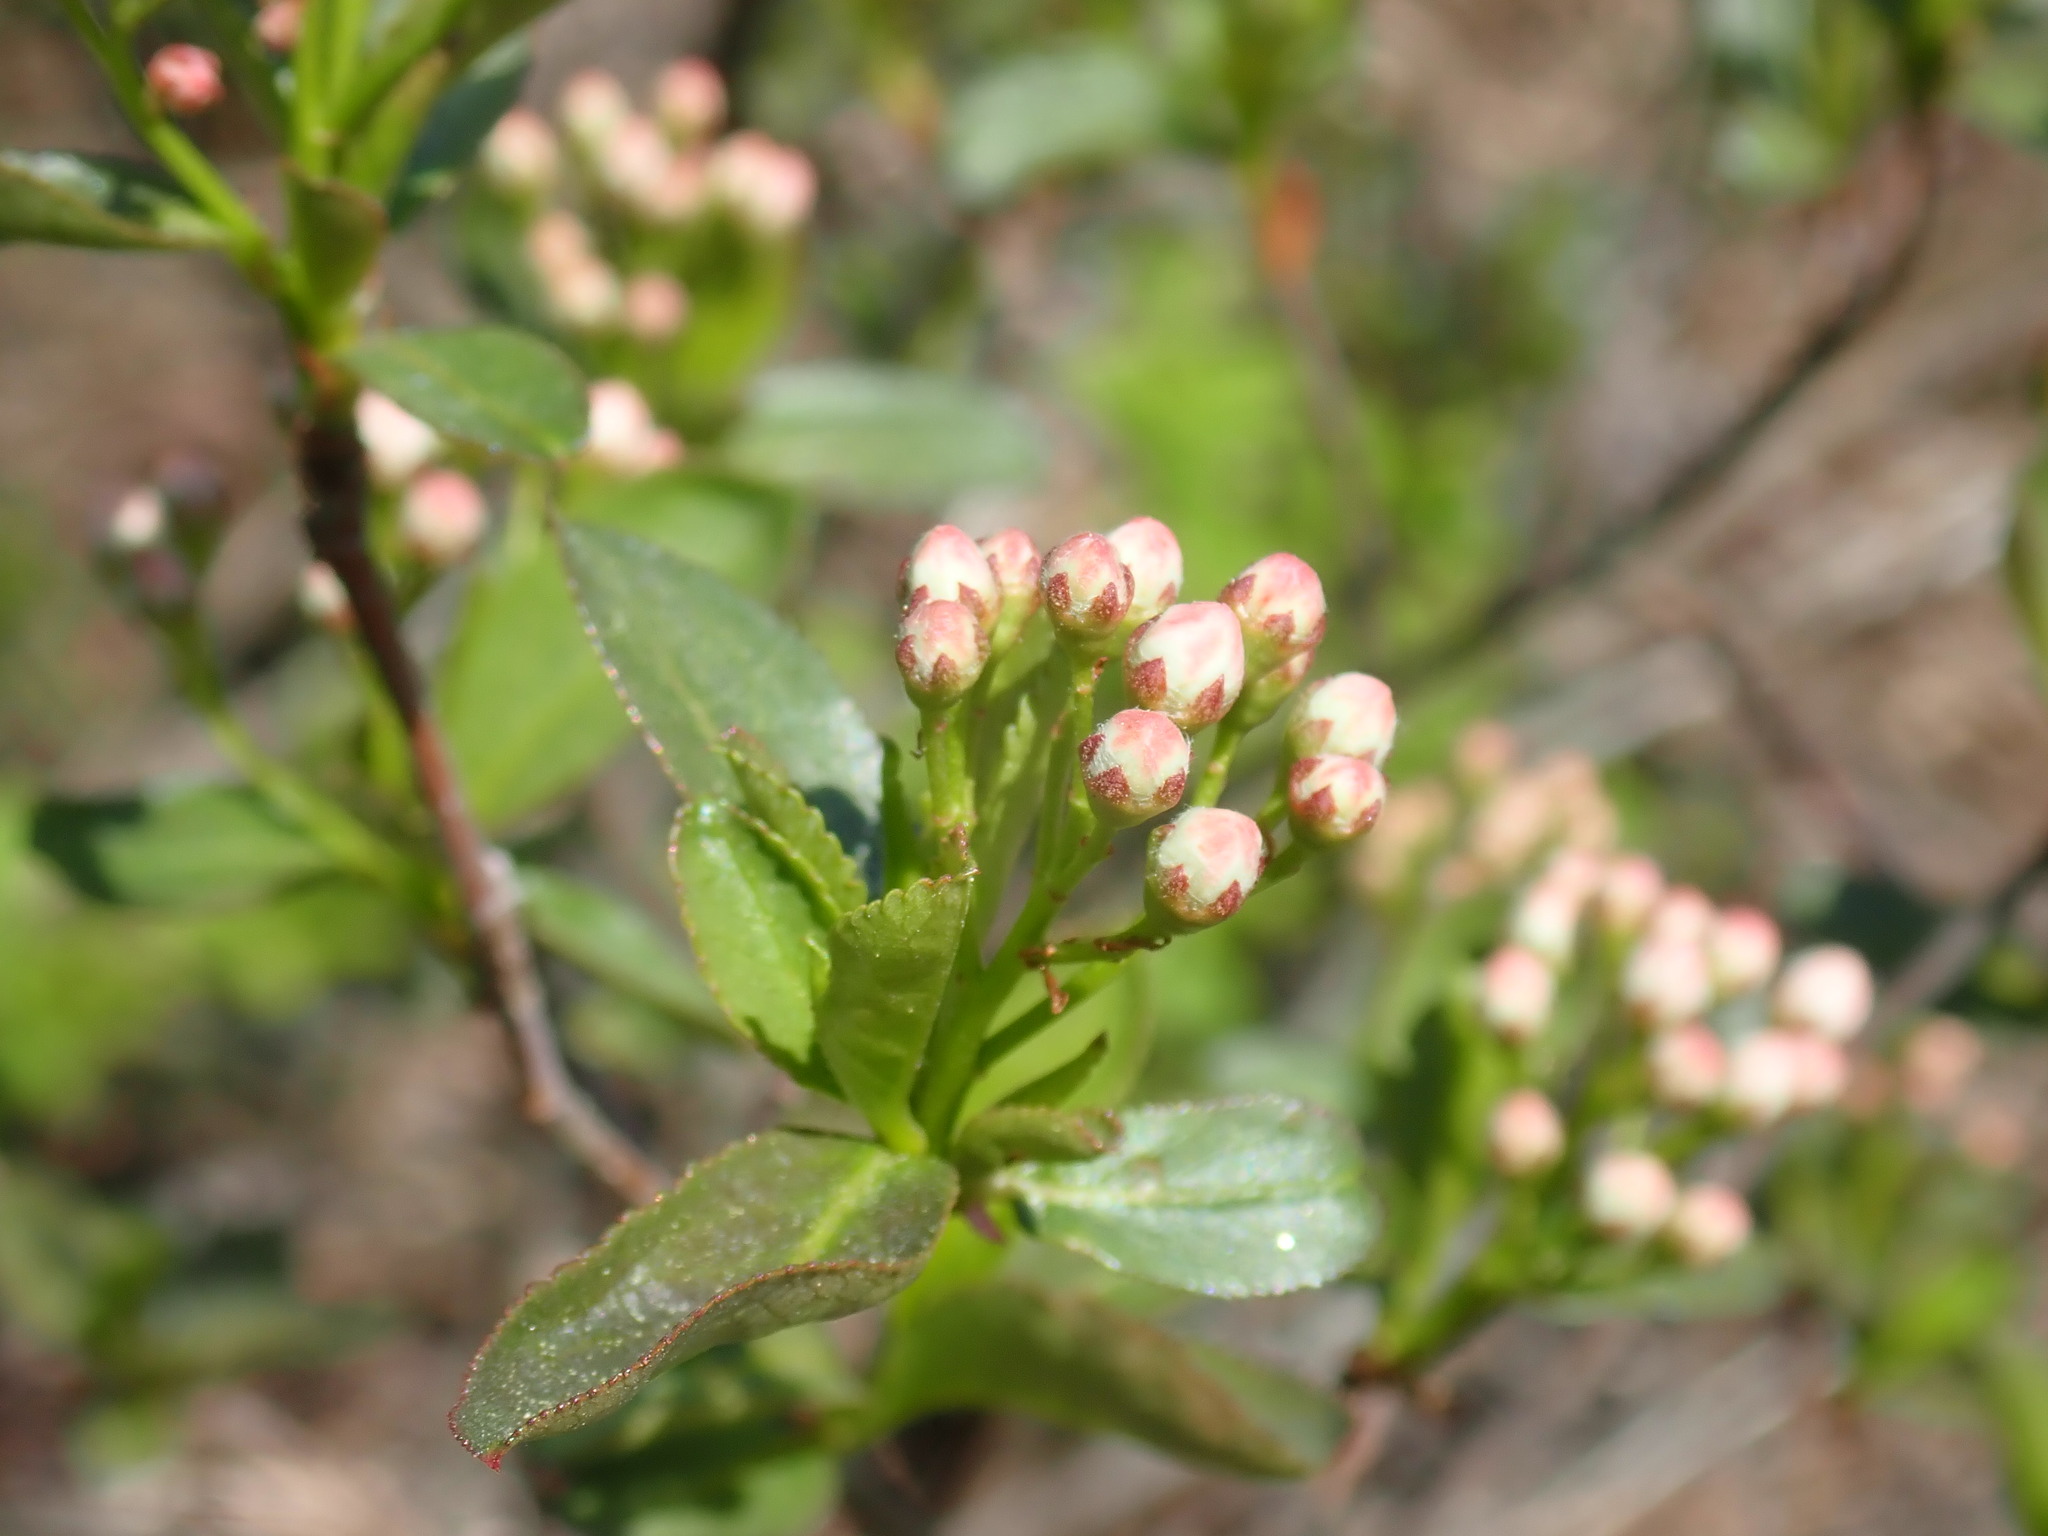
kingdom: Plantae
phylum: Tracheophyta
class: Magnoliopsida
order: Rosales
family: Rosaceae
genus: Aronia
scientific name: Aronia
